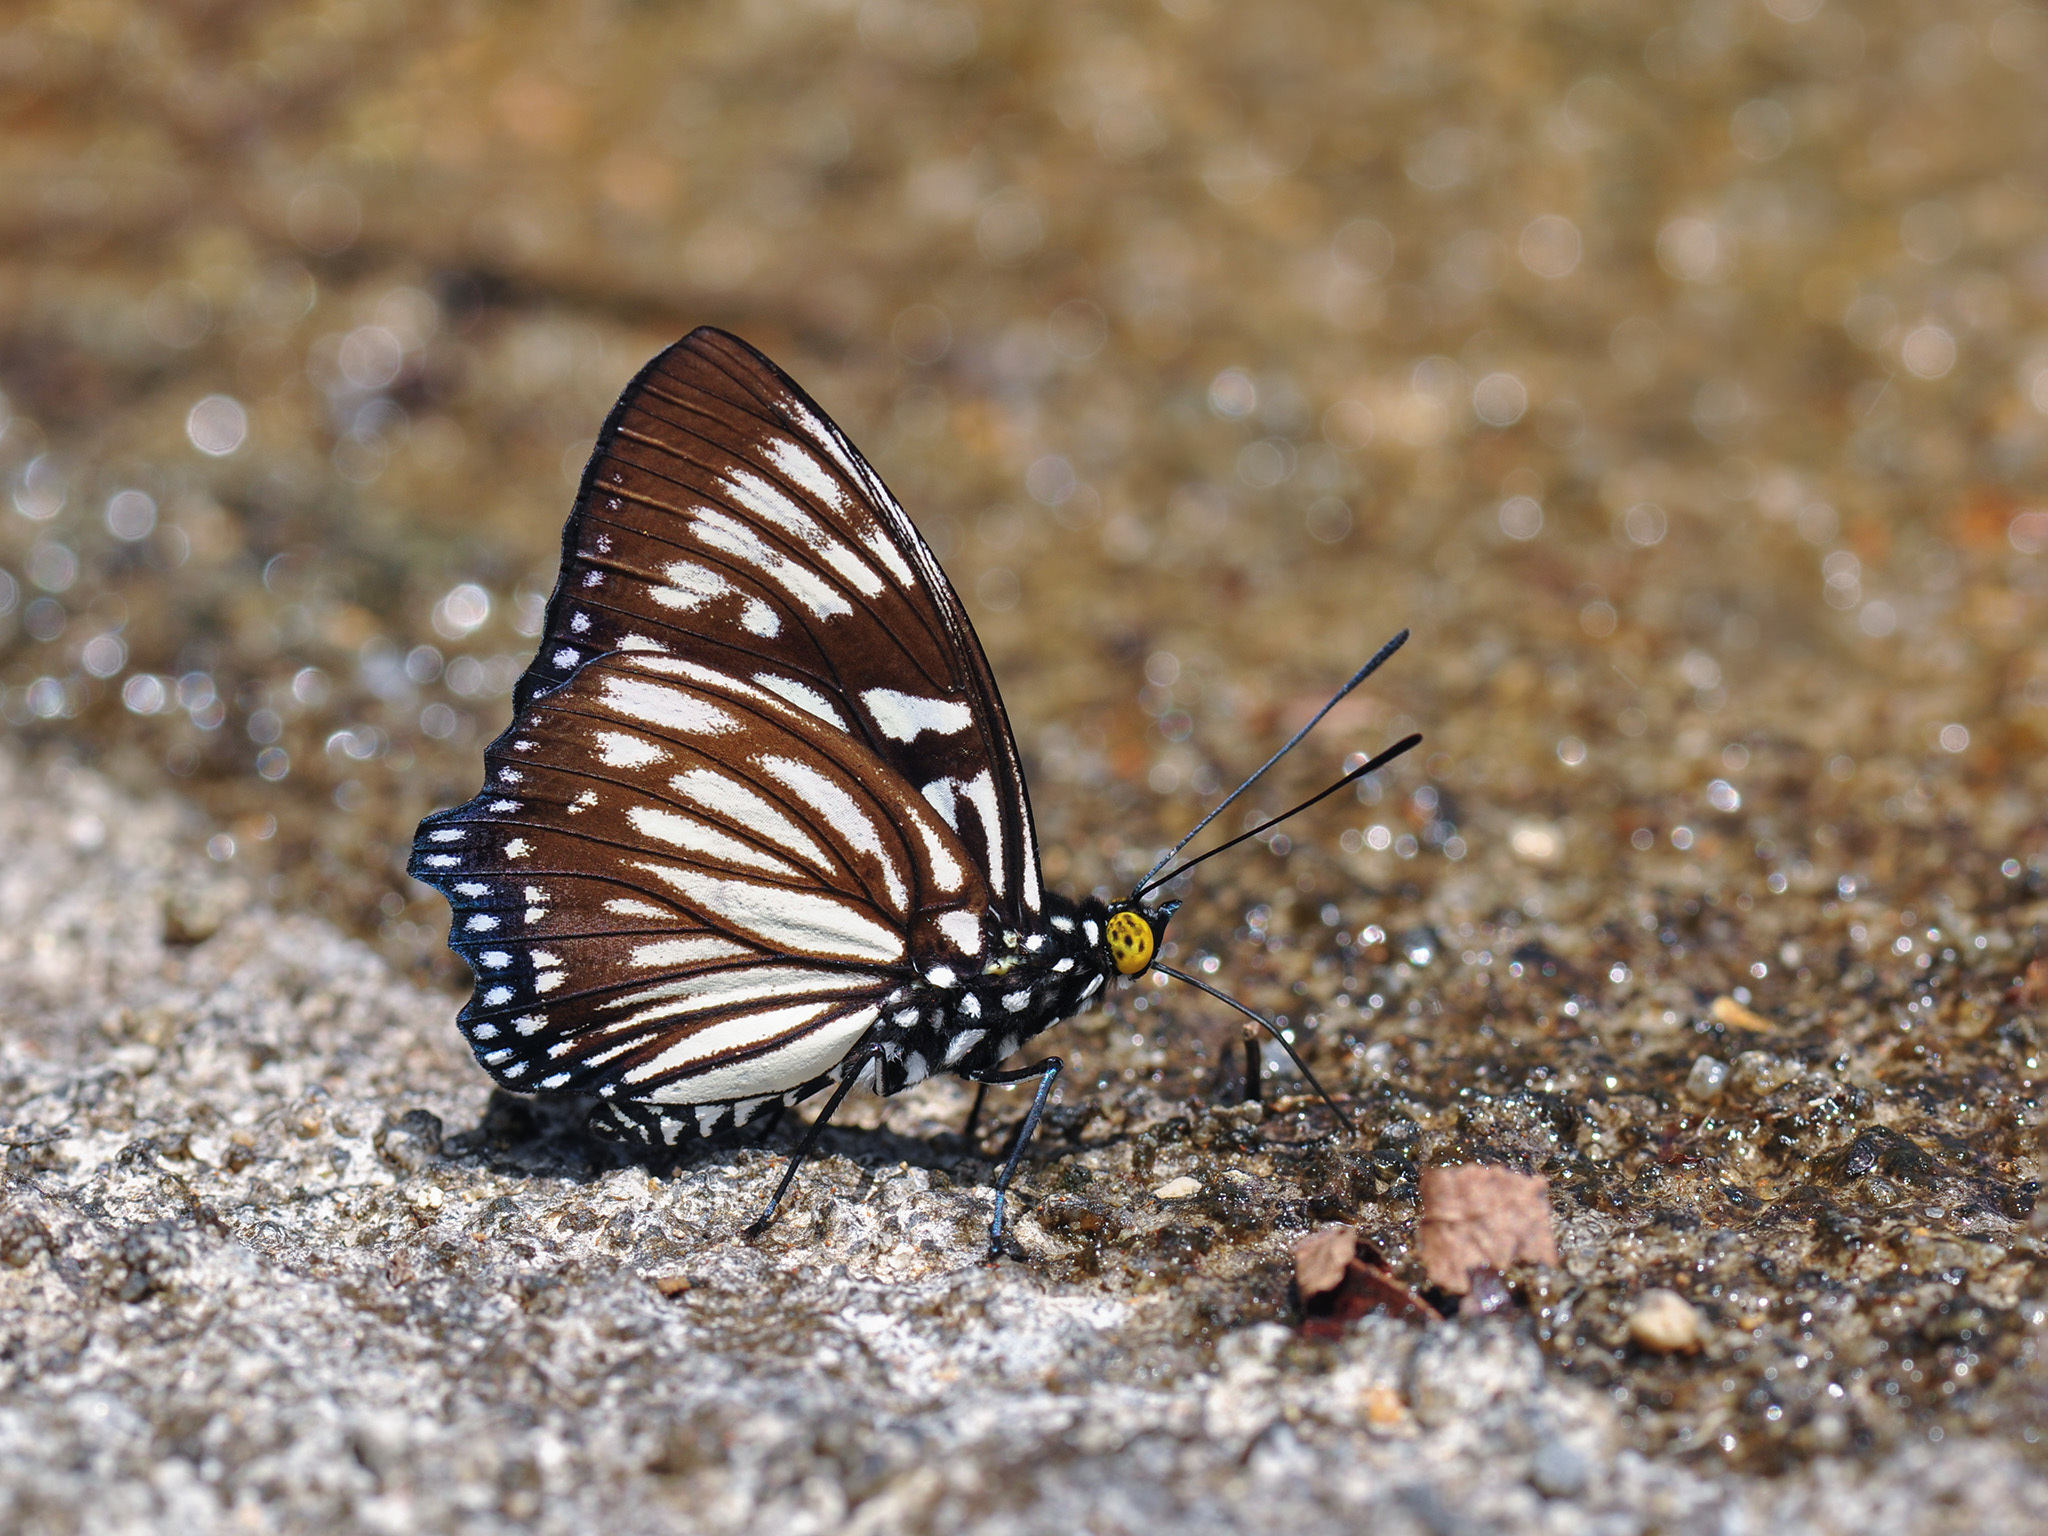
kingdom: Animalia
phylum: Arthropoda
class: Insecta
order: Lepidoptera
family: Nymphalidae
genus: Euripus
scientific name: Euripus nyctelius
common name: Courtesan
